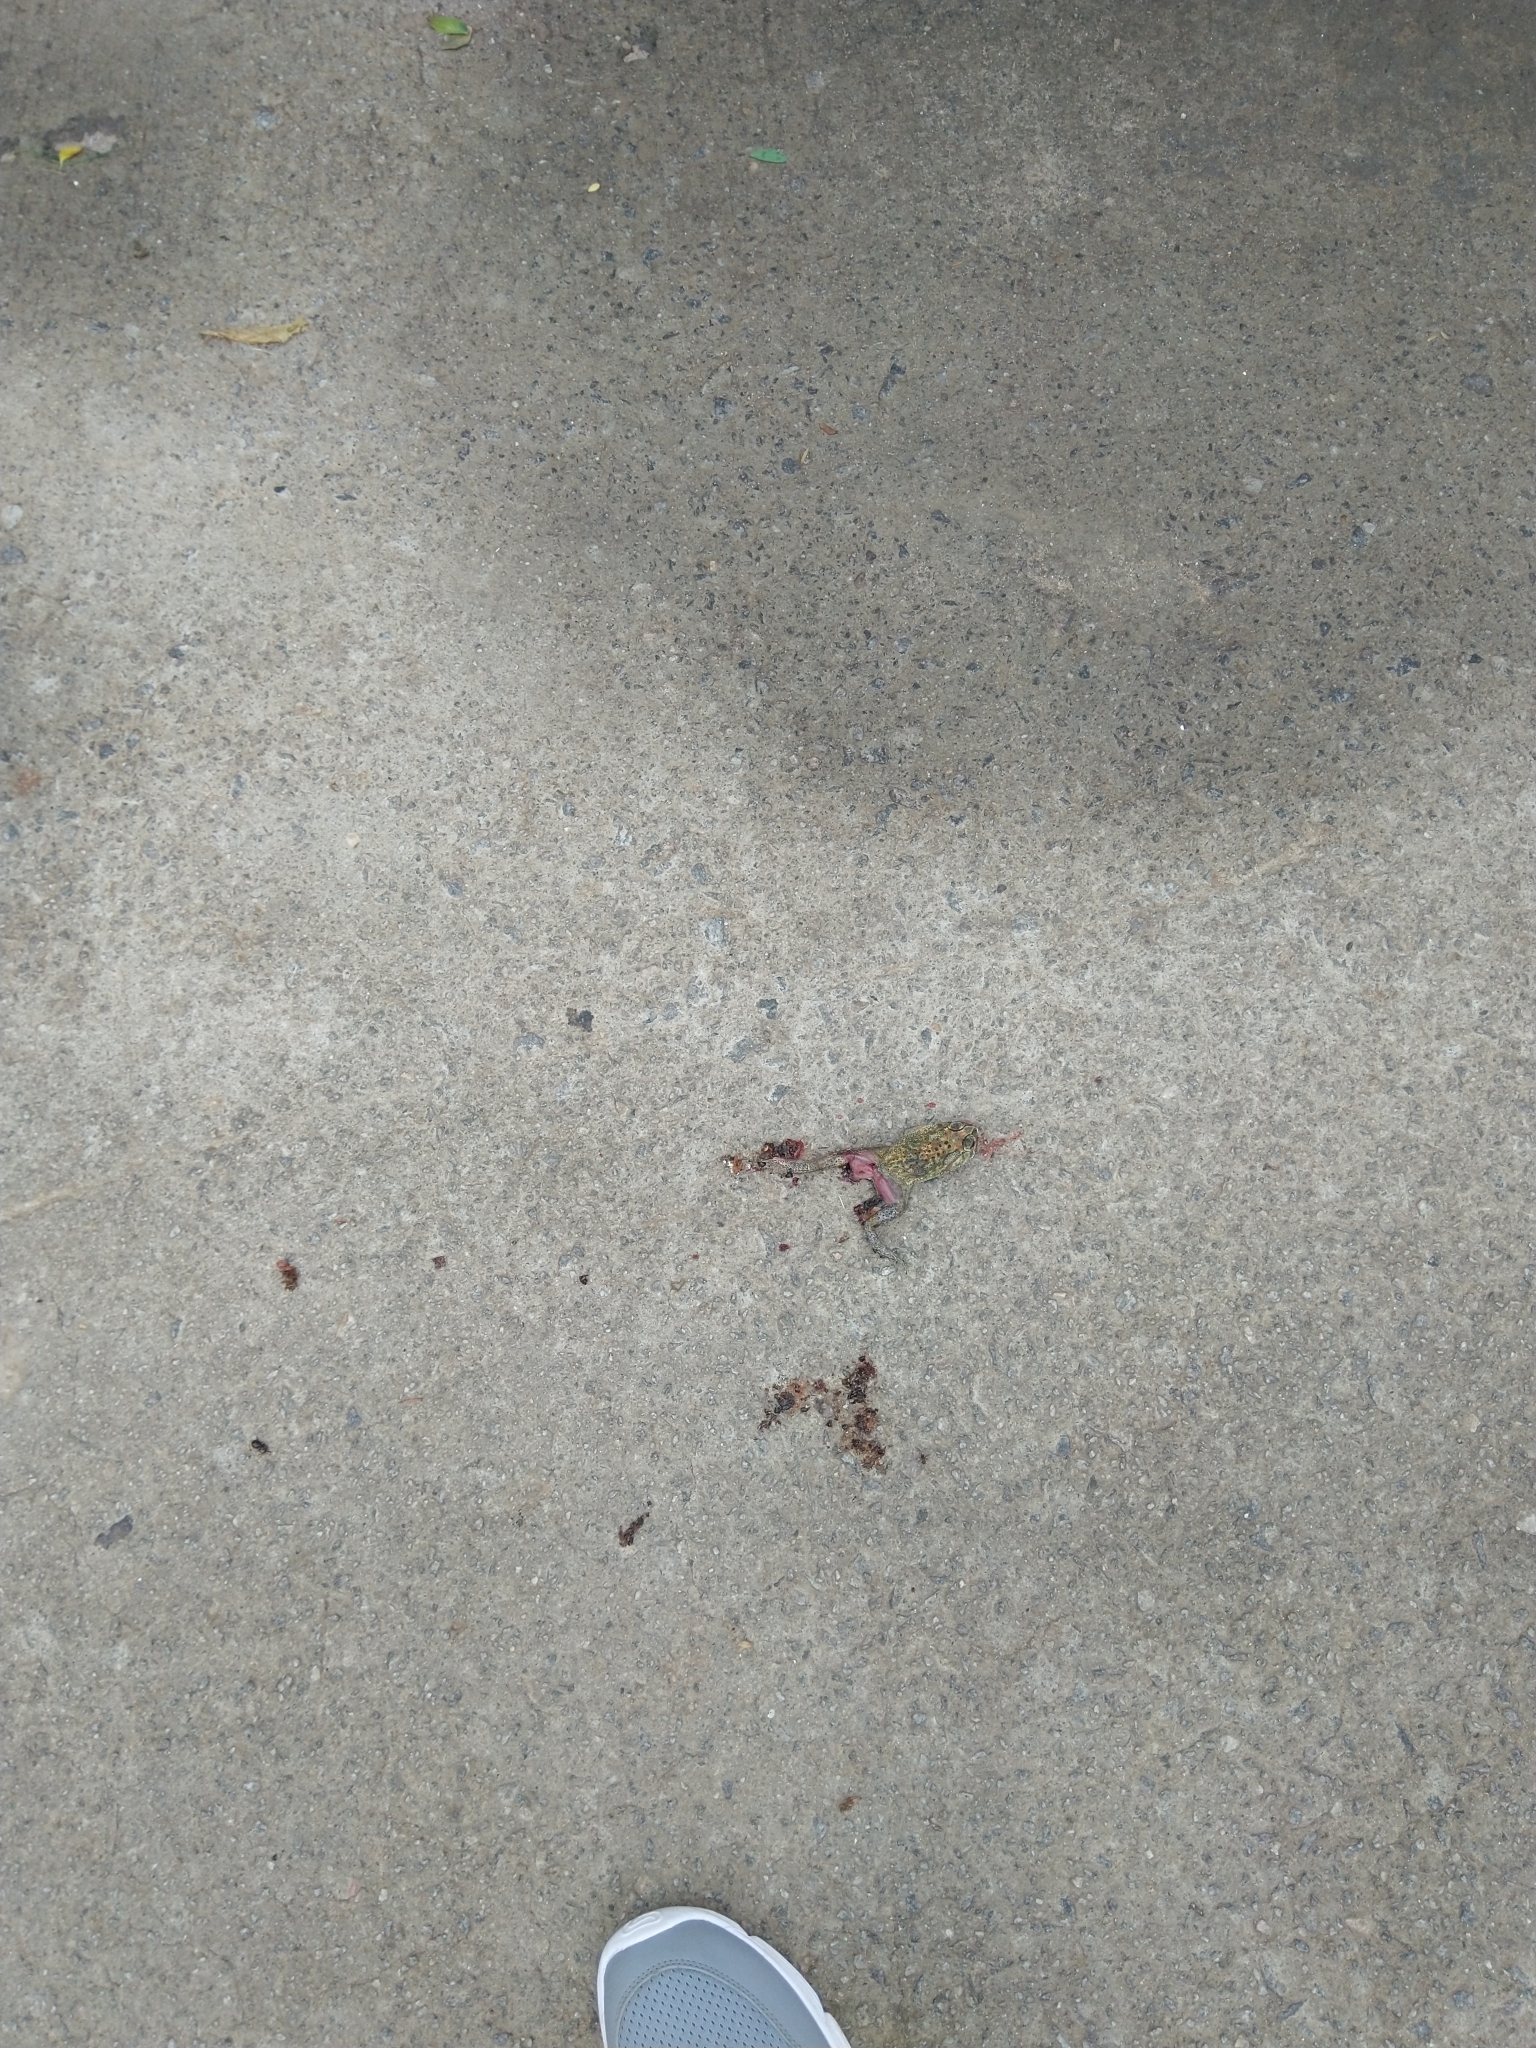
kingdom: Animalia
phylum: Chordata
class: Amphibia
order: Anura
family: Bufonidae
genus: Duttaphrynus
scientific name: Duttaphrynus melanostictus
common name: Common sunda toad
